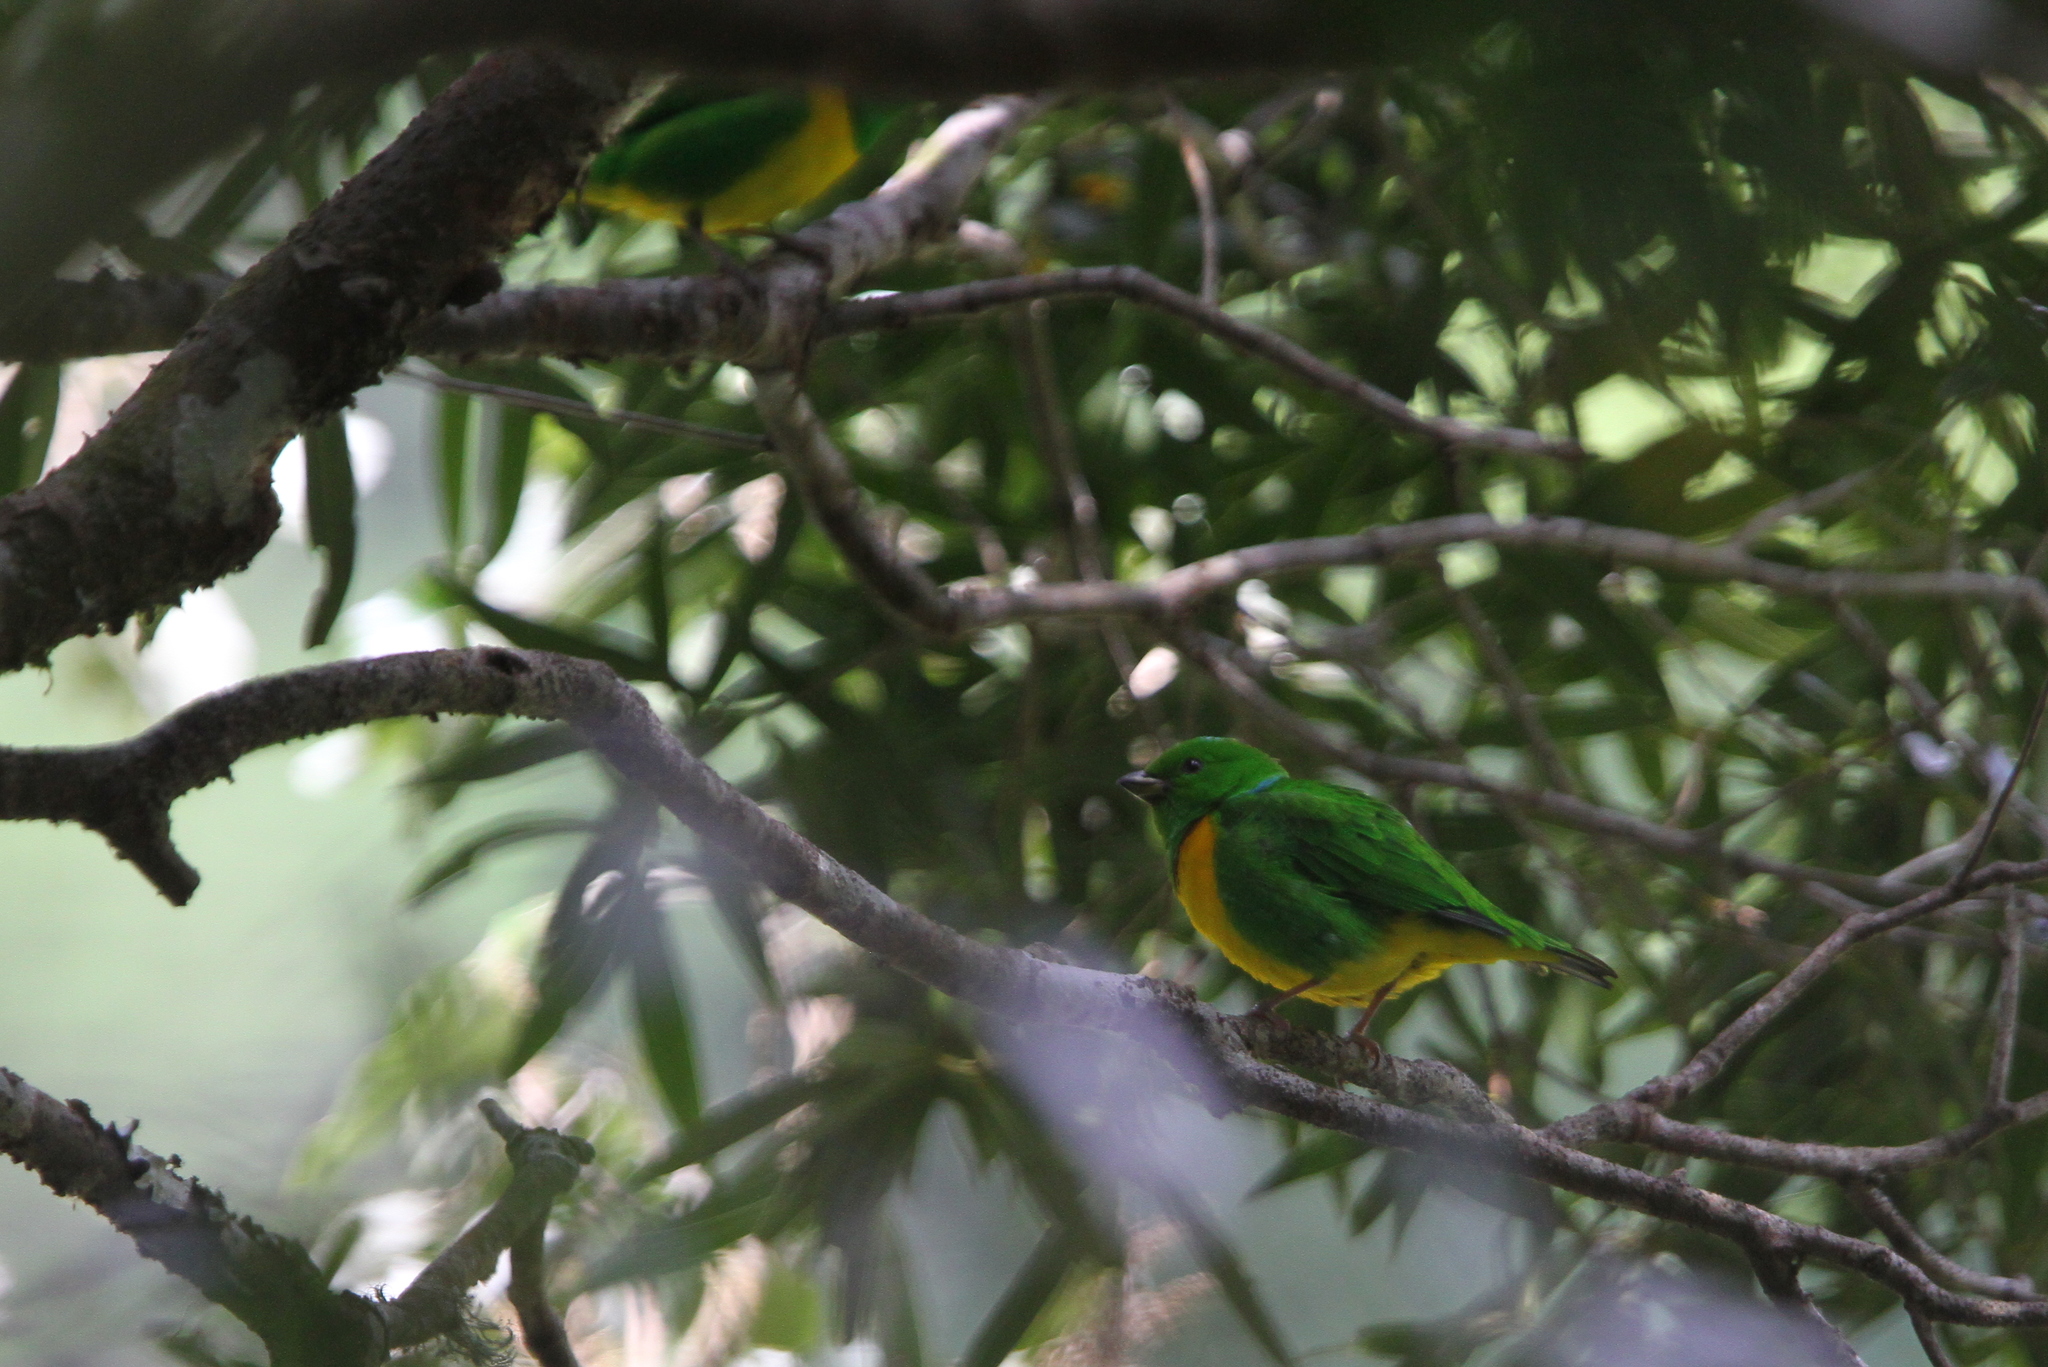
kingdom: Animalia
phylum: Chordata
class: Aves
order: Passeriformes
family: Fringillidae
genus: Chlorophonia
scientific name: Chlorophonia occipitalis
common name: Blue-crowned chlorophonia
